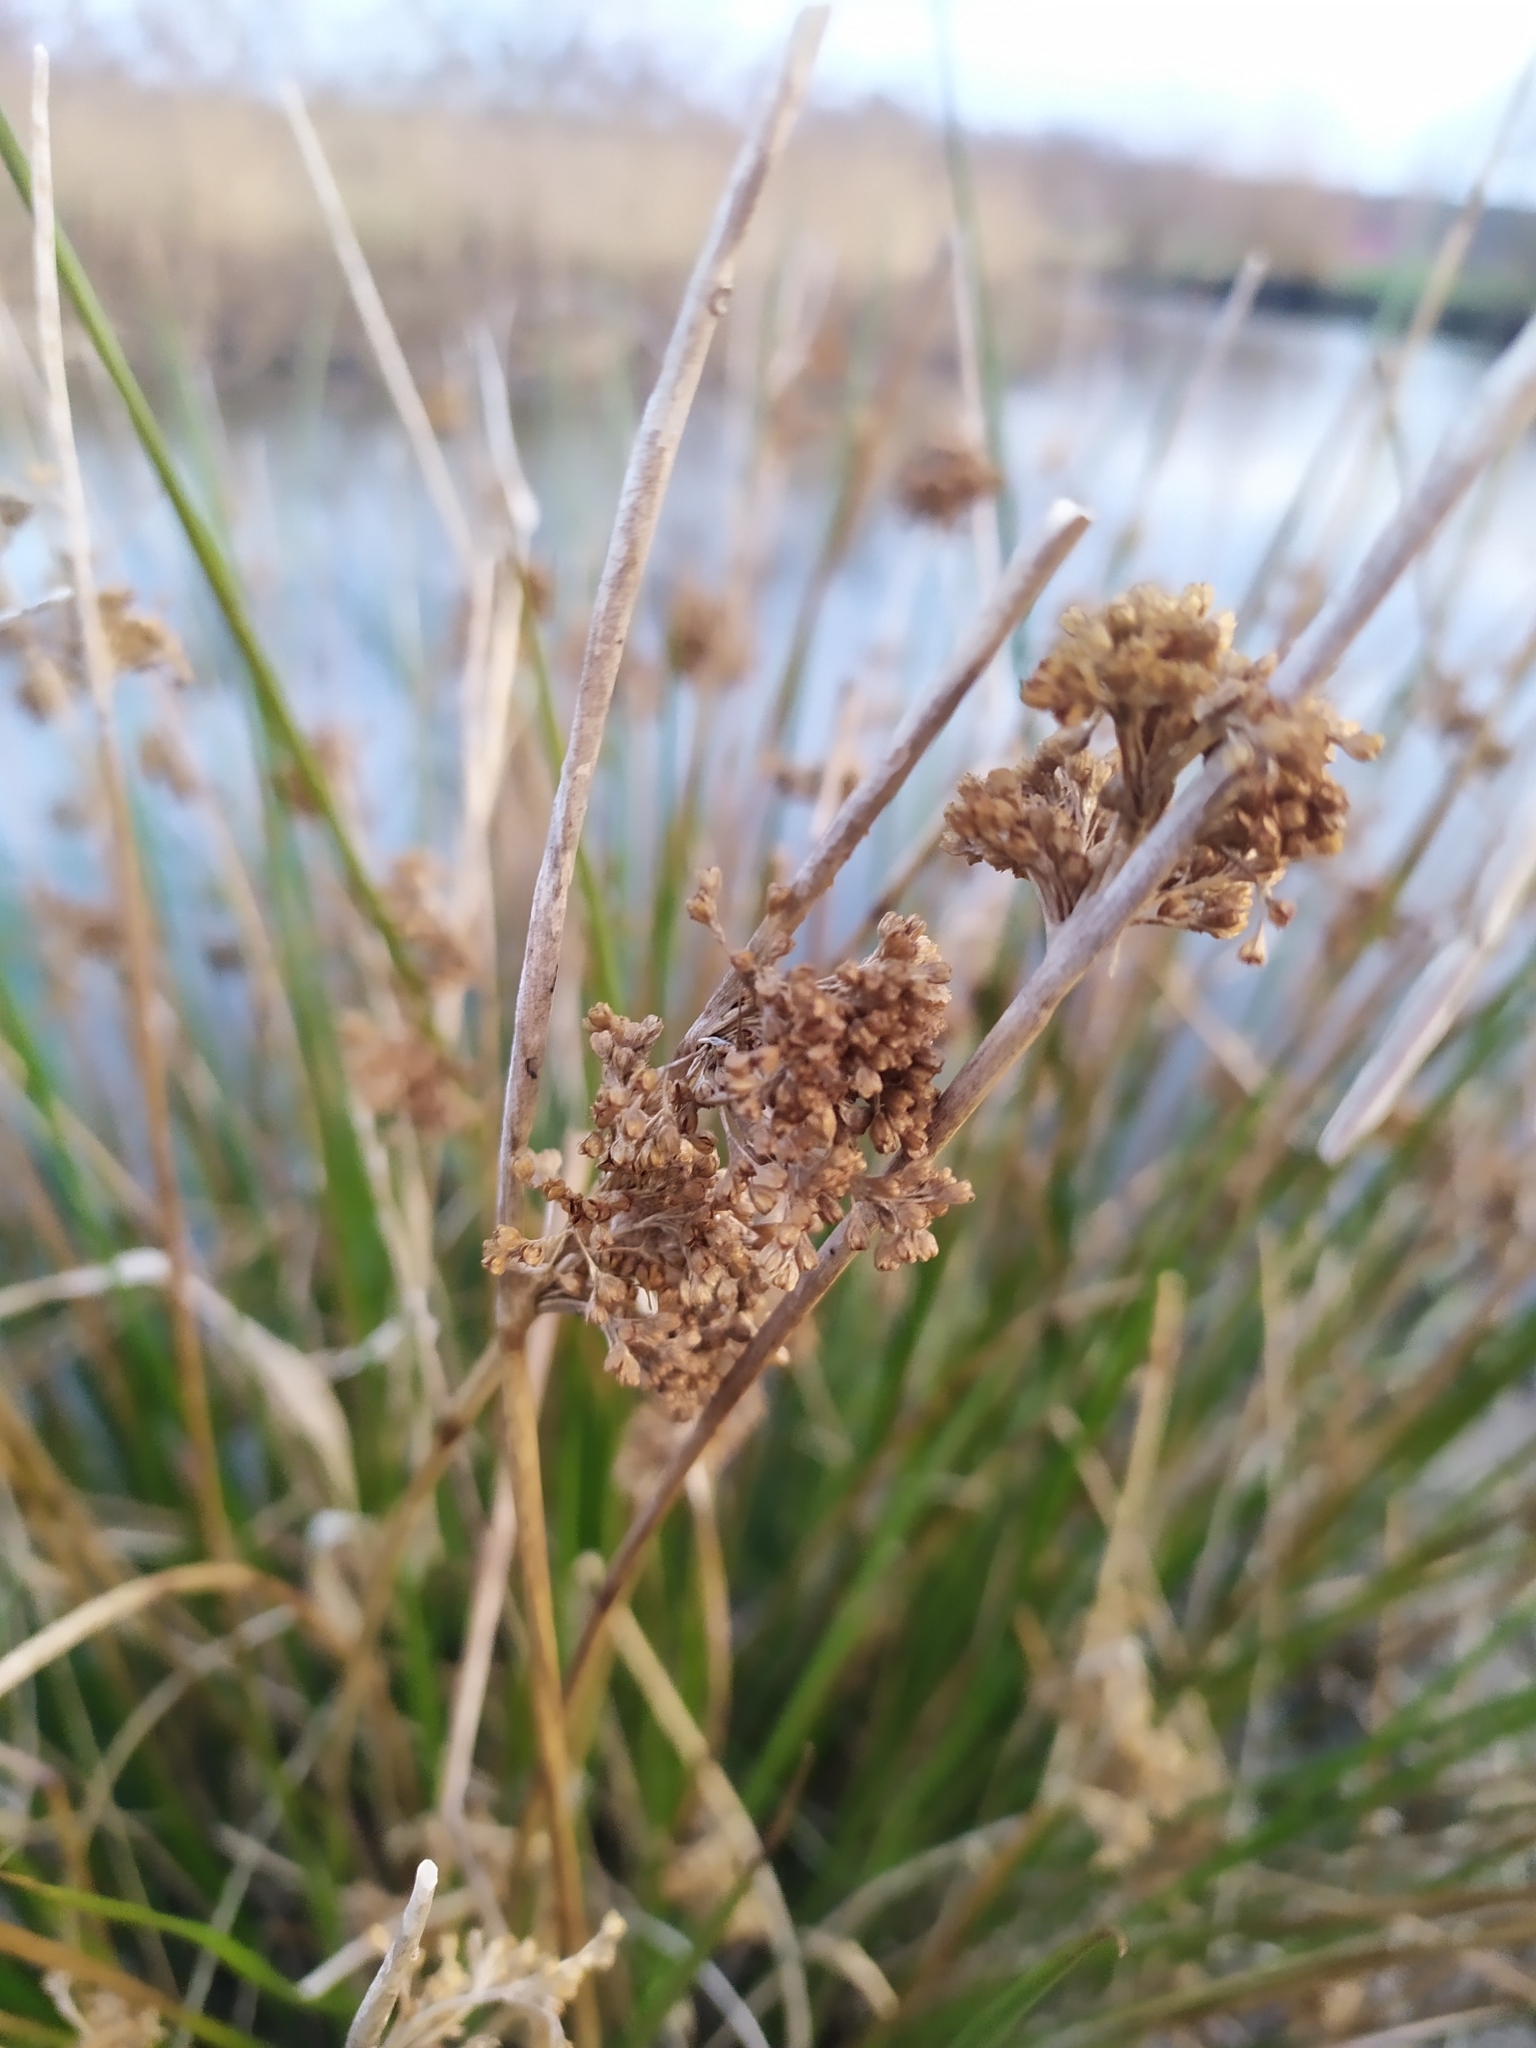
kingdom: Plantae
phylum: Tracheophyta
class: Liliopsida
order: Poales
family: Juncaceae
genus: Juncus
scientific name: Juncus effusus
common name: Soft rush
